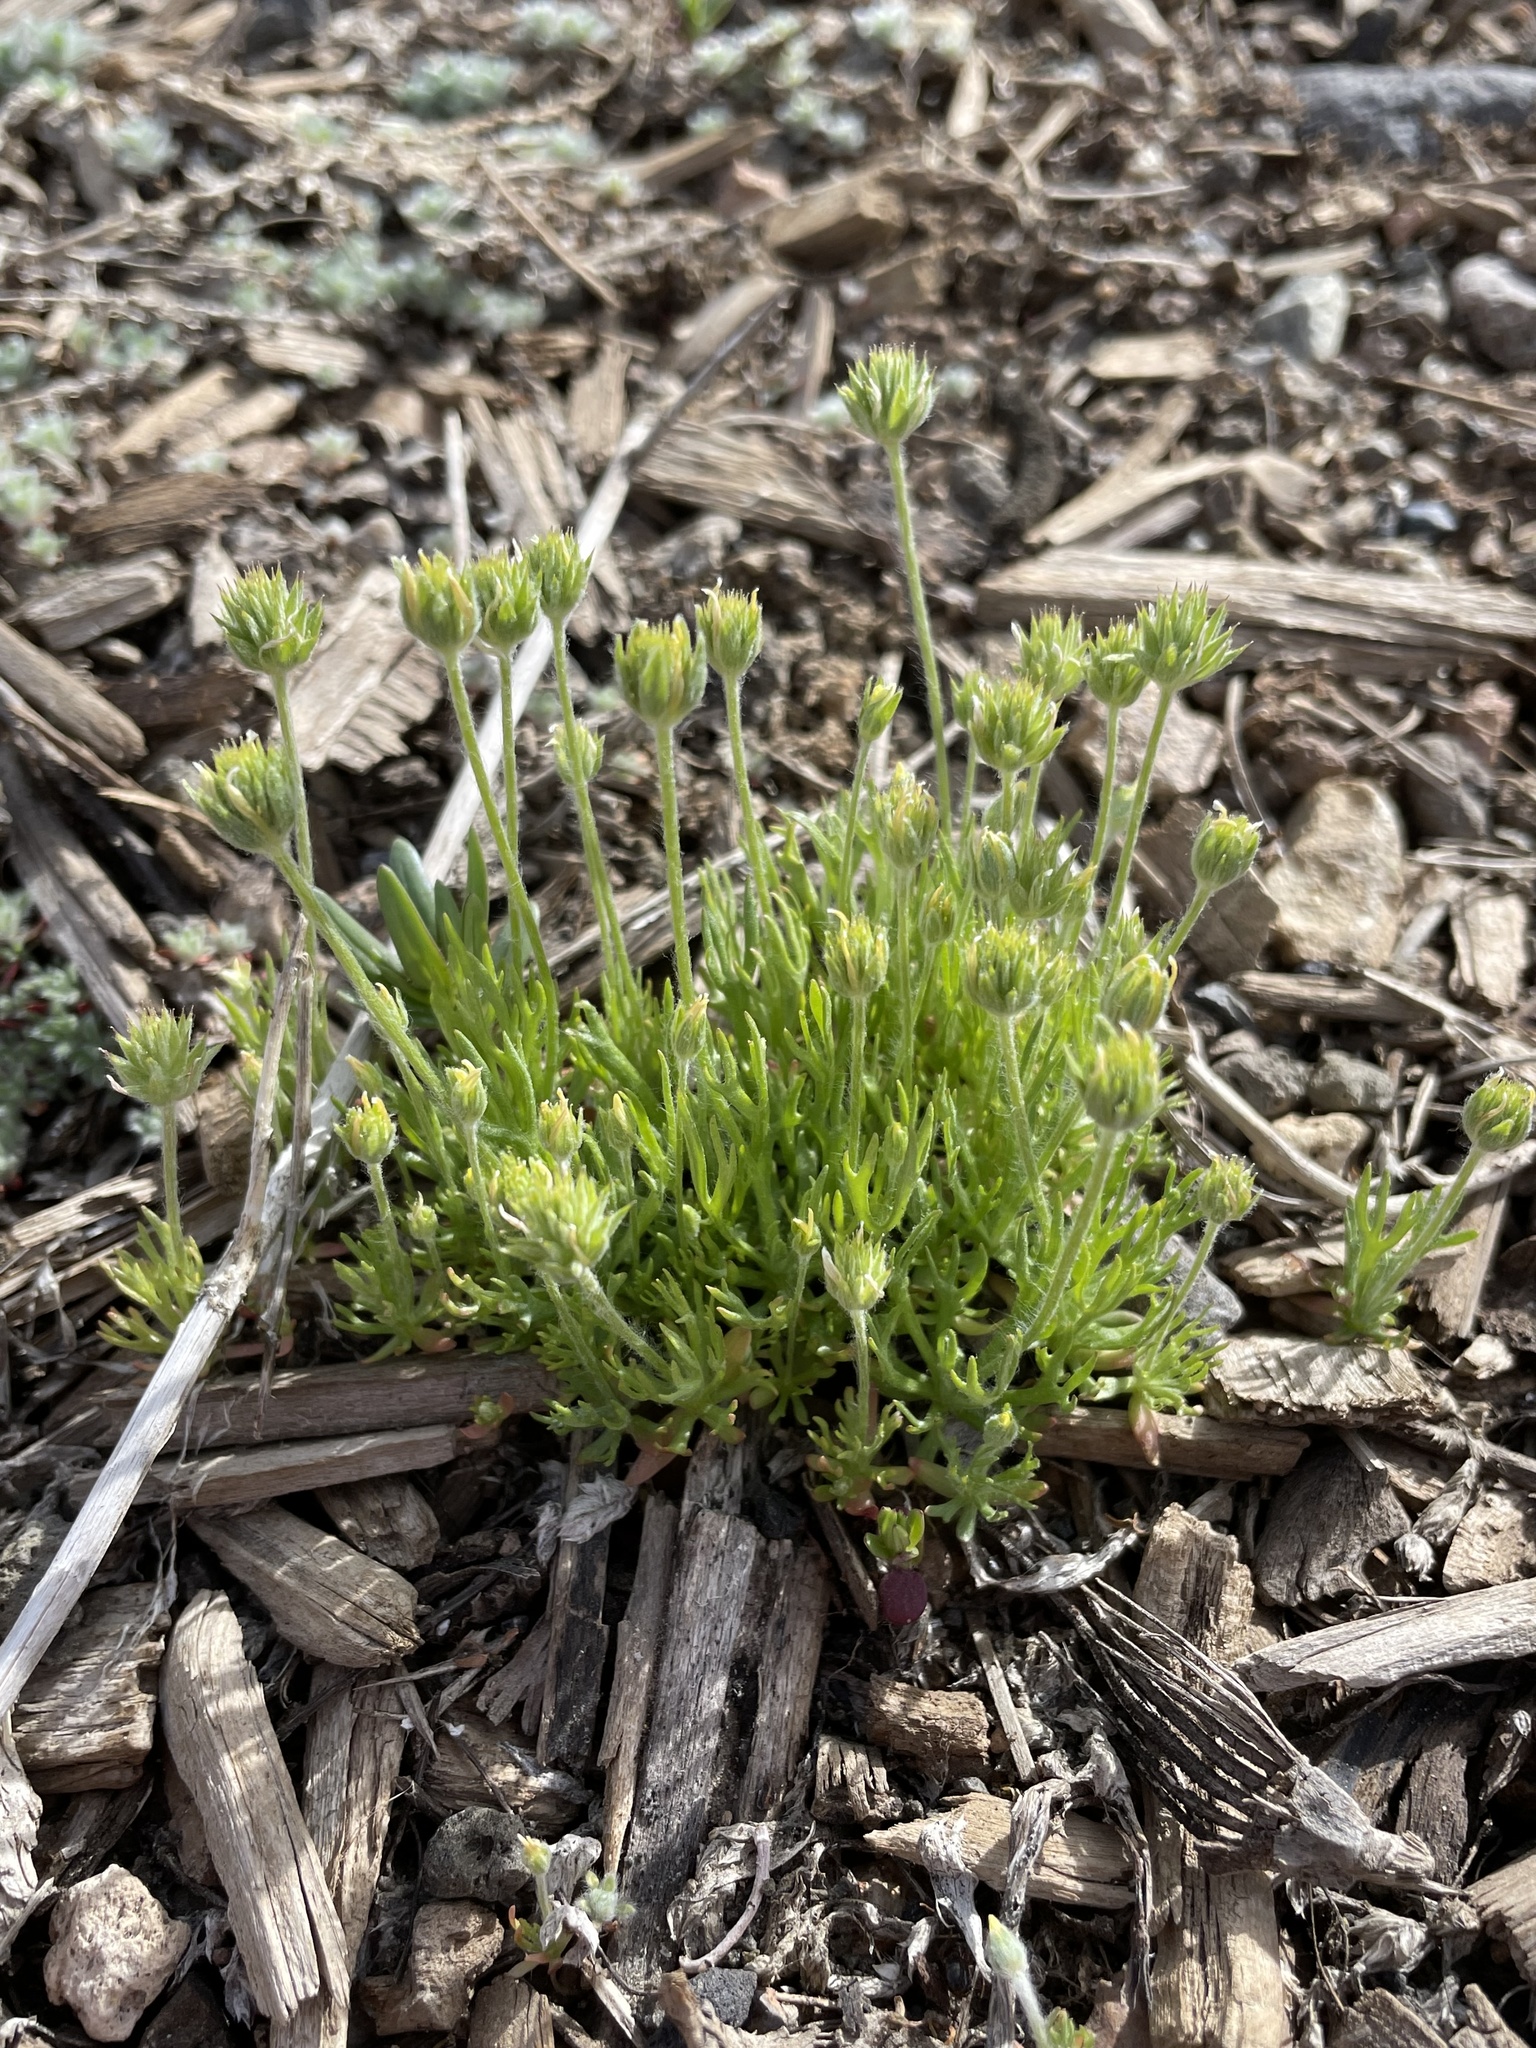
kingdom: Plantae
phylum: Tracheophyta
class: Magnoliopsida
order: Ranunculales
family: Ranunculaceae
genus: Ceratocephala
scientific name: Ceratocephala orthoceras
